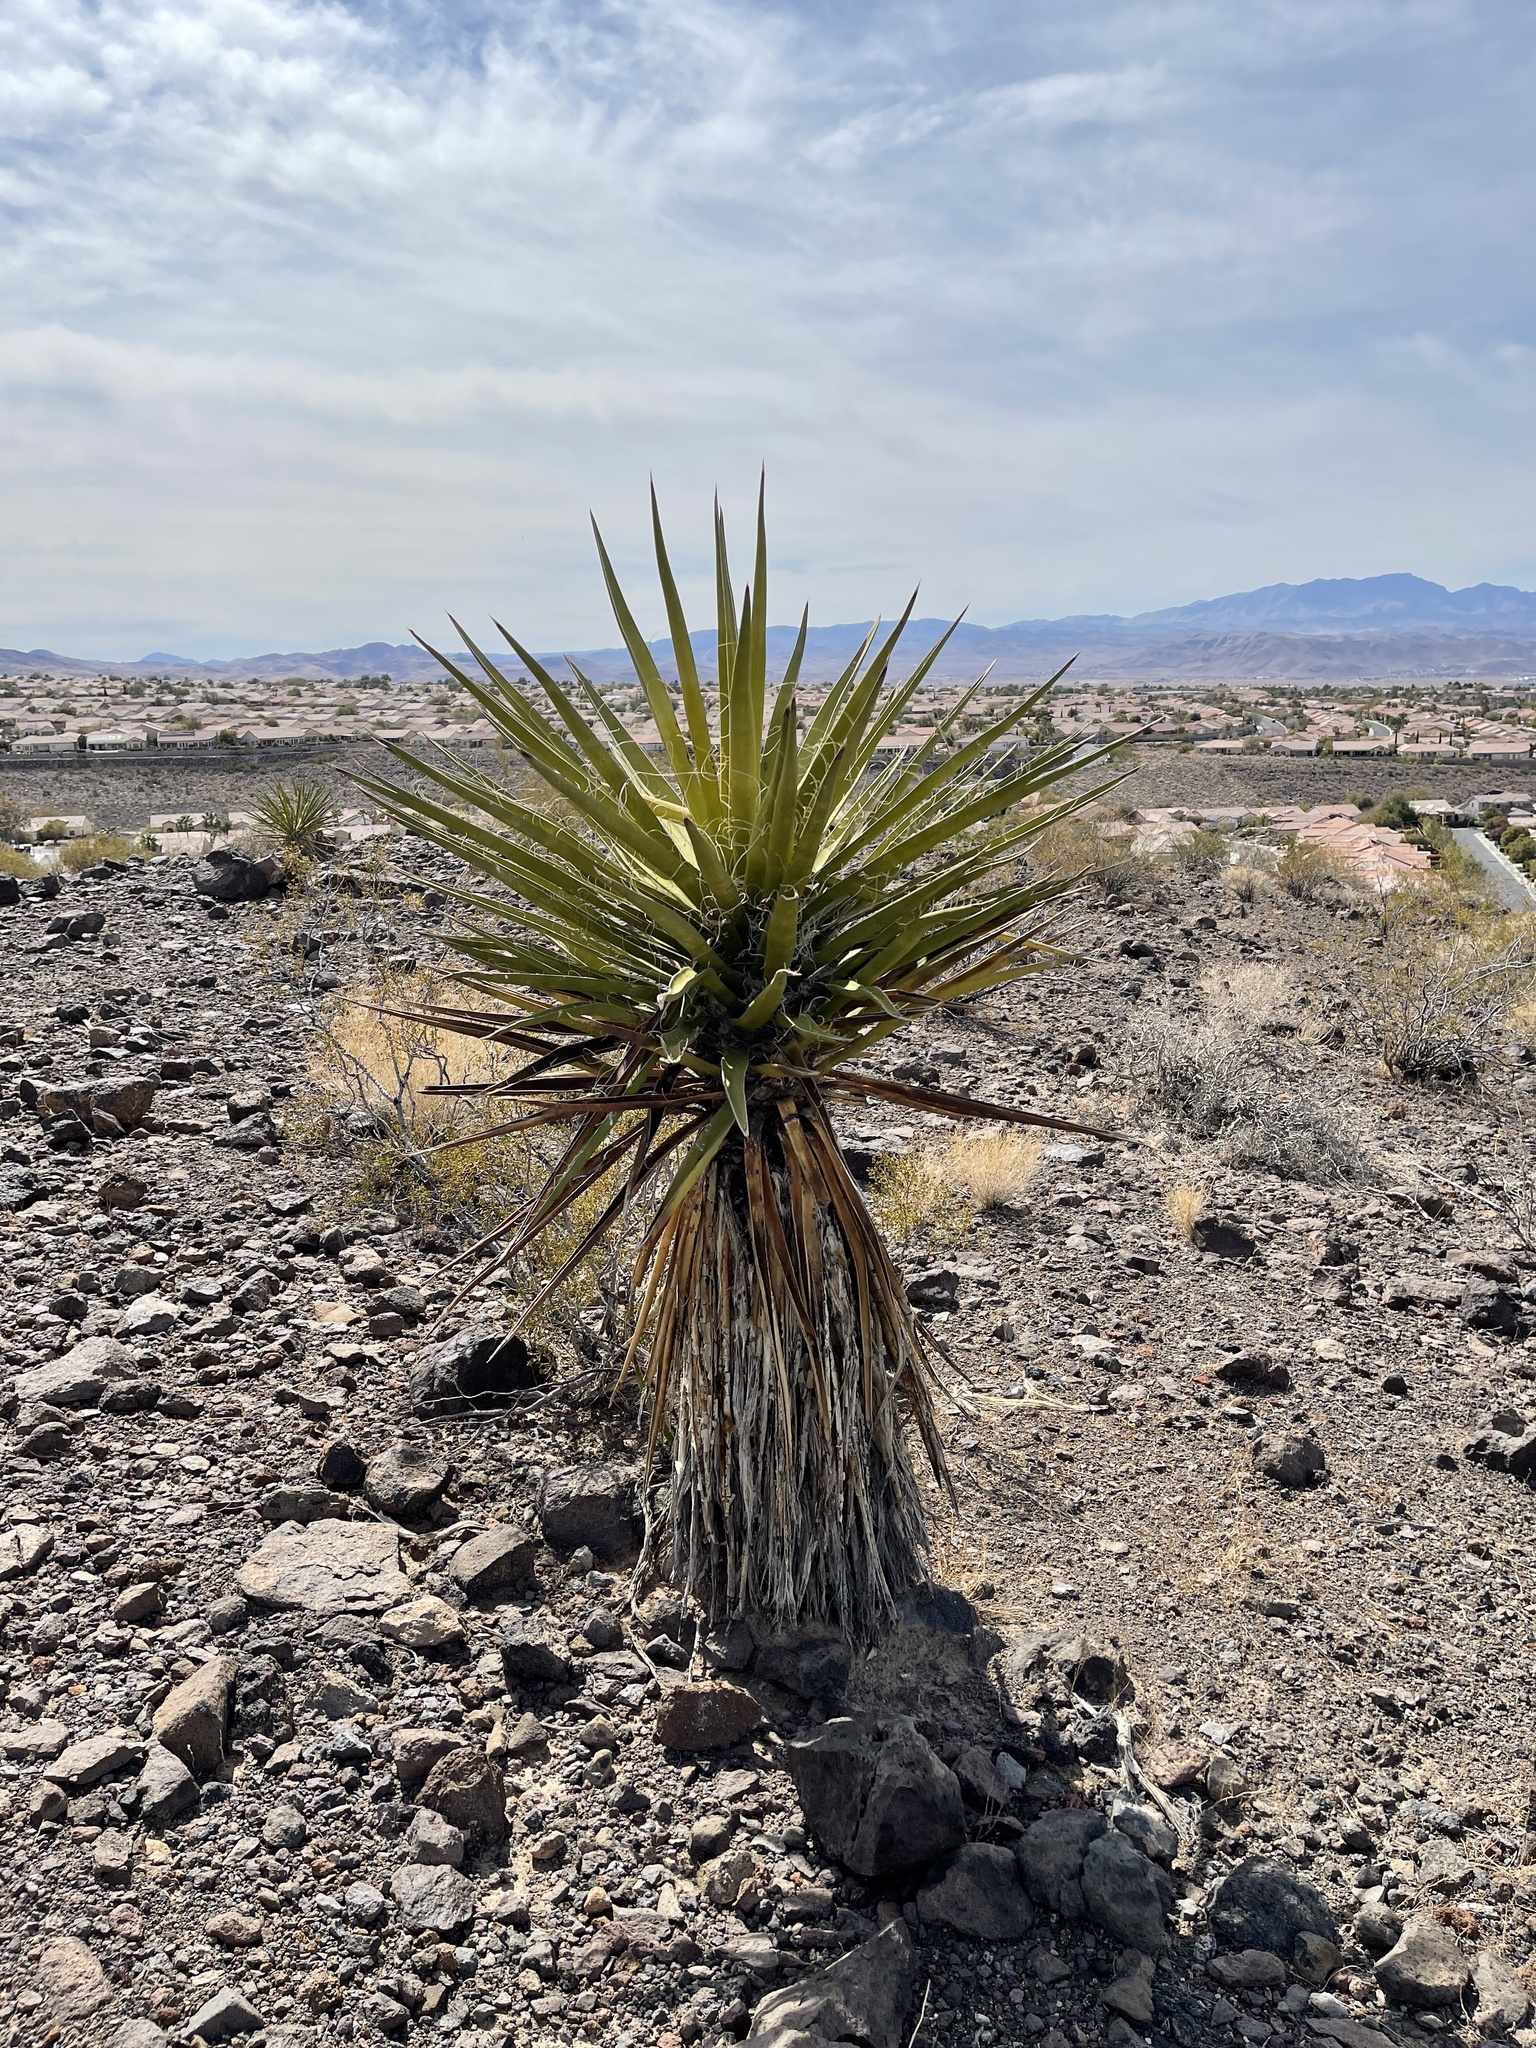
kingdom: Plantae
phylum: Tracheophyta
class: Liliopsida
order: Asparagales
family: Asparagaceae
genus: Yucca
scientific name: Yucca schidigera
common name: Mojave yucca
